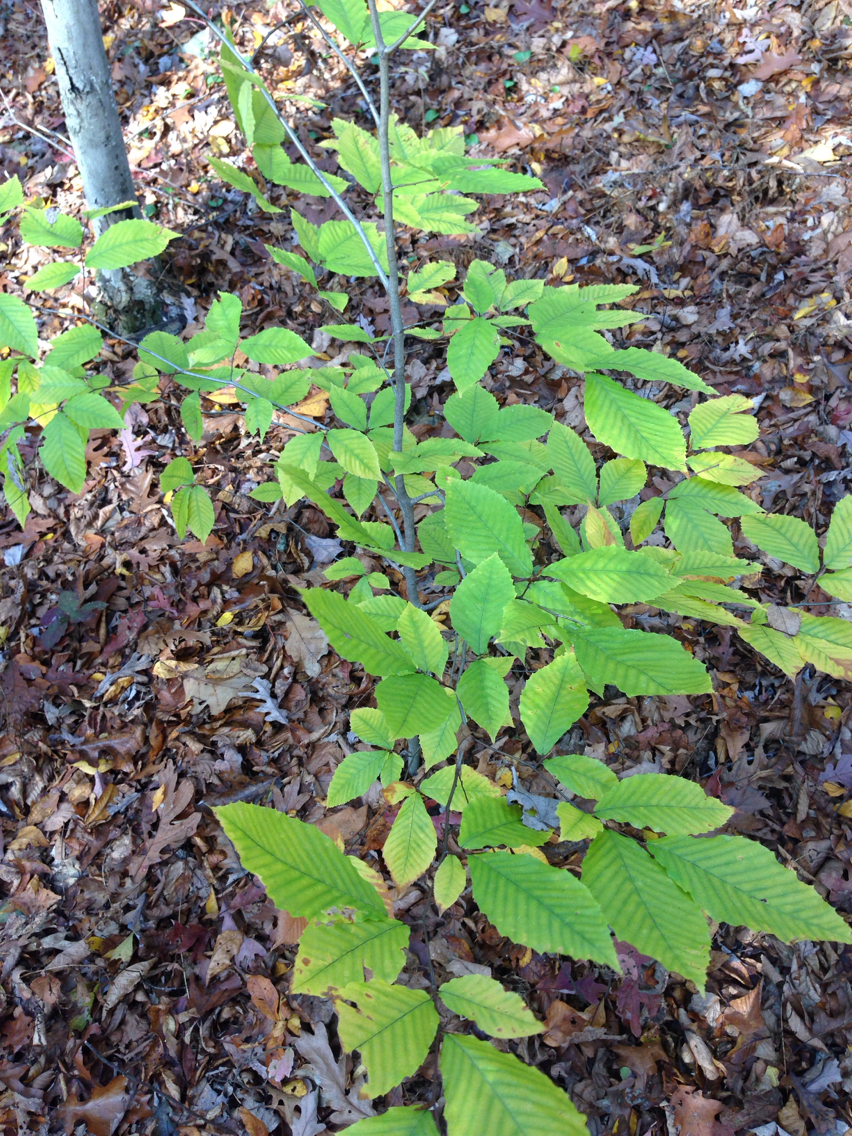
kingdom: Plantae
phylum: Tracheophyta
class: Magnoliopsida
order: Fagales
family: Fagaceae
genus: Fagus
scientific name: Fagus grandifolia
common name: American beech
